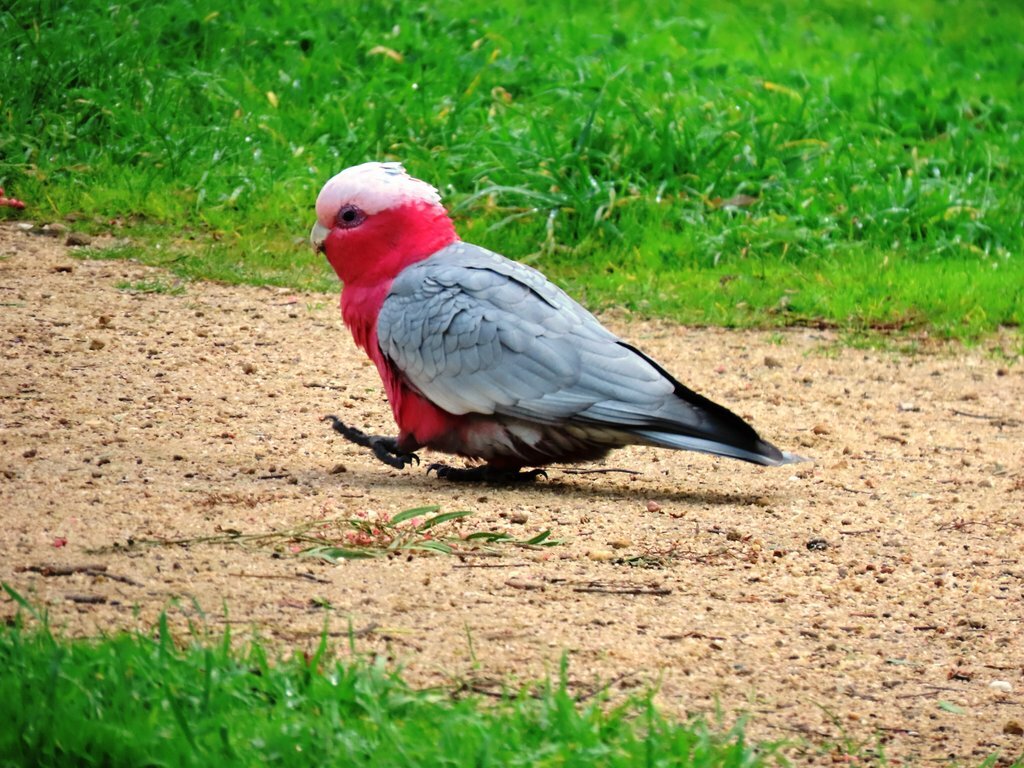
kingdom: Animalia
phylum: Chordata
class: Aves
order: Psittaciformes
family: Psittacidae
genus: Eolophus
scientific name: Eolophus roseicapilla
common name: Galah
